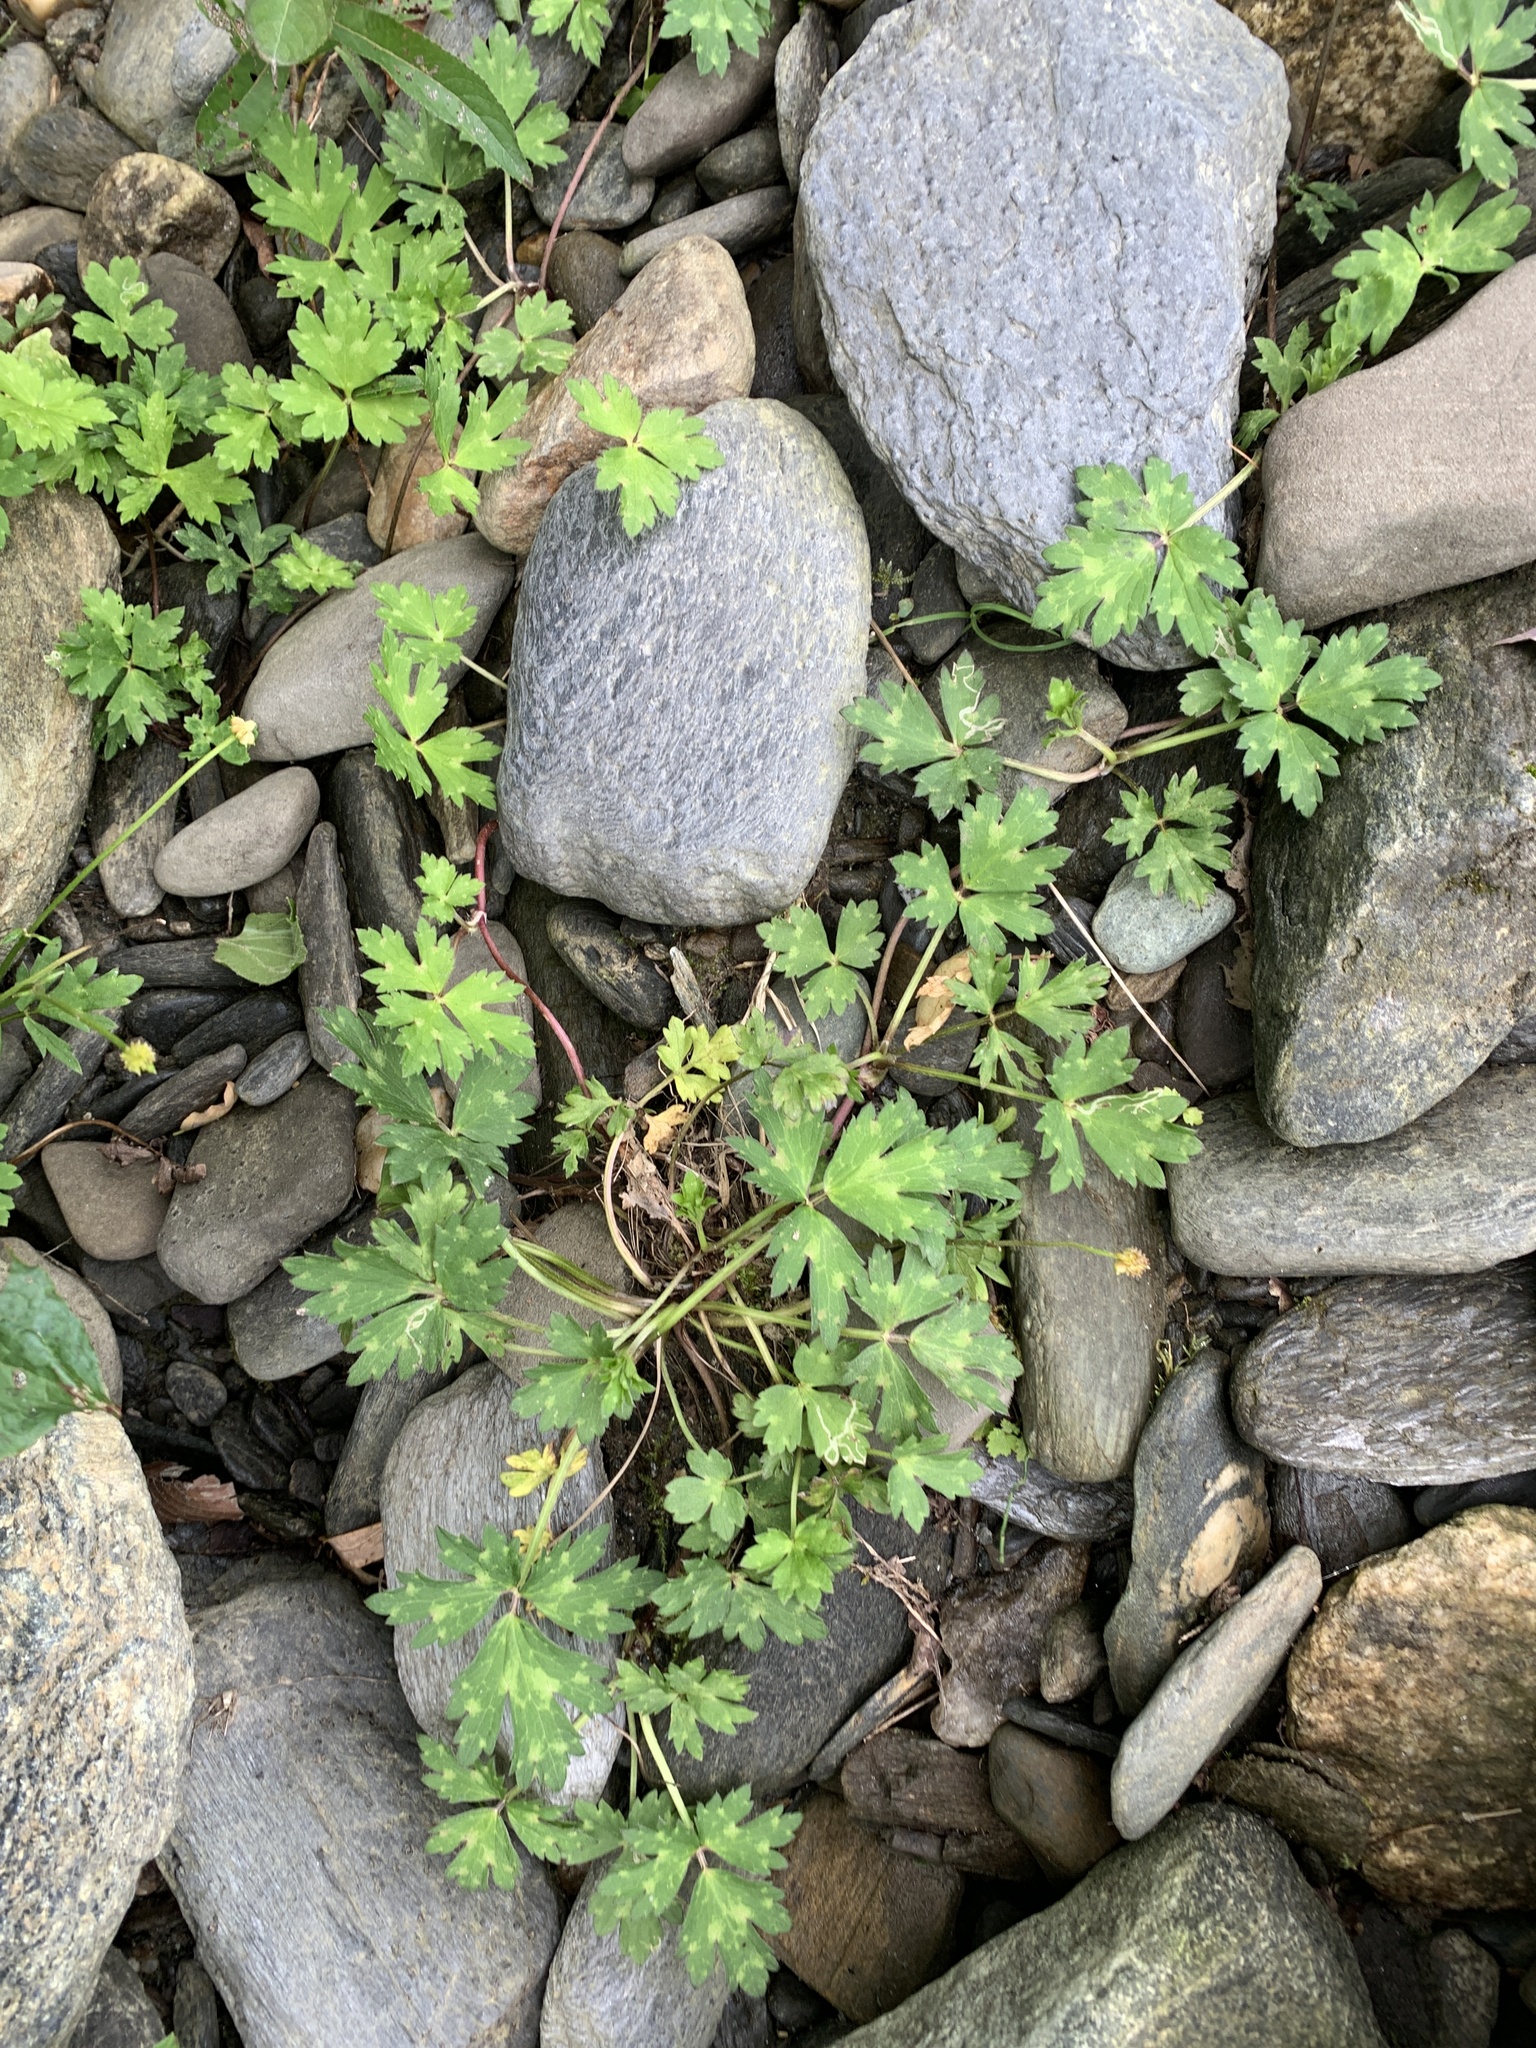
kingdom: Plantae
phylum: Tracheophyta
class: Magnoliopsida
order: Ranunculales
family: Ranunculaceae
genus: Ranunculus
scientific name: Ranunculus repens
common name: Creeping buttercup
